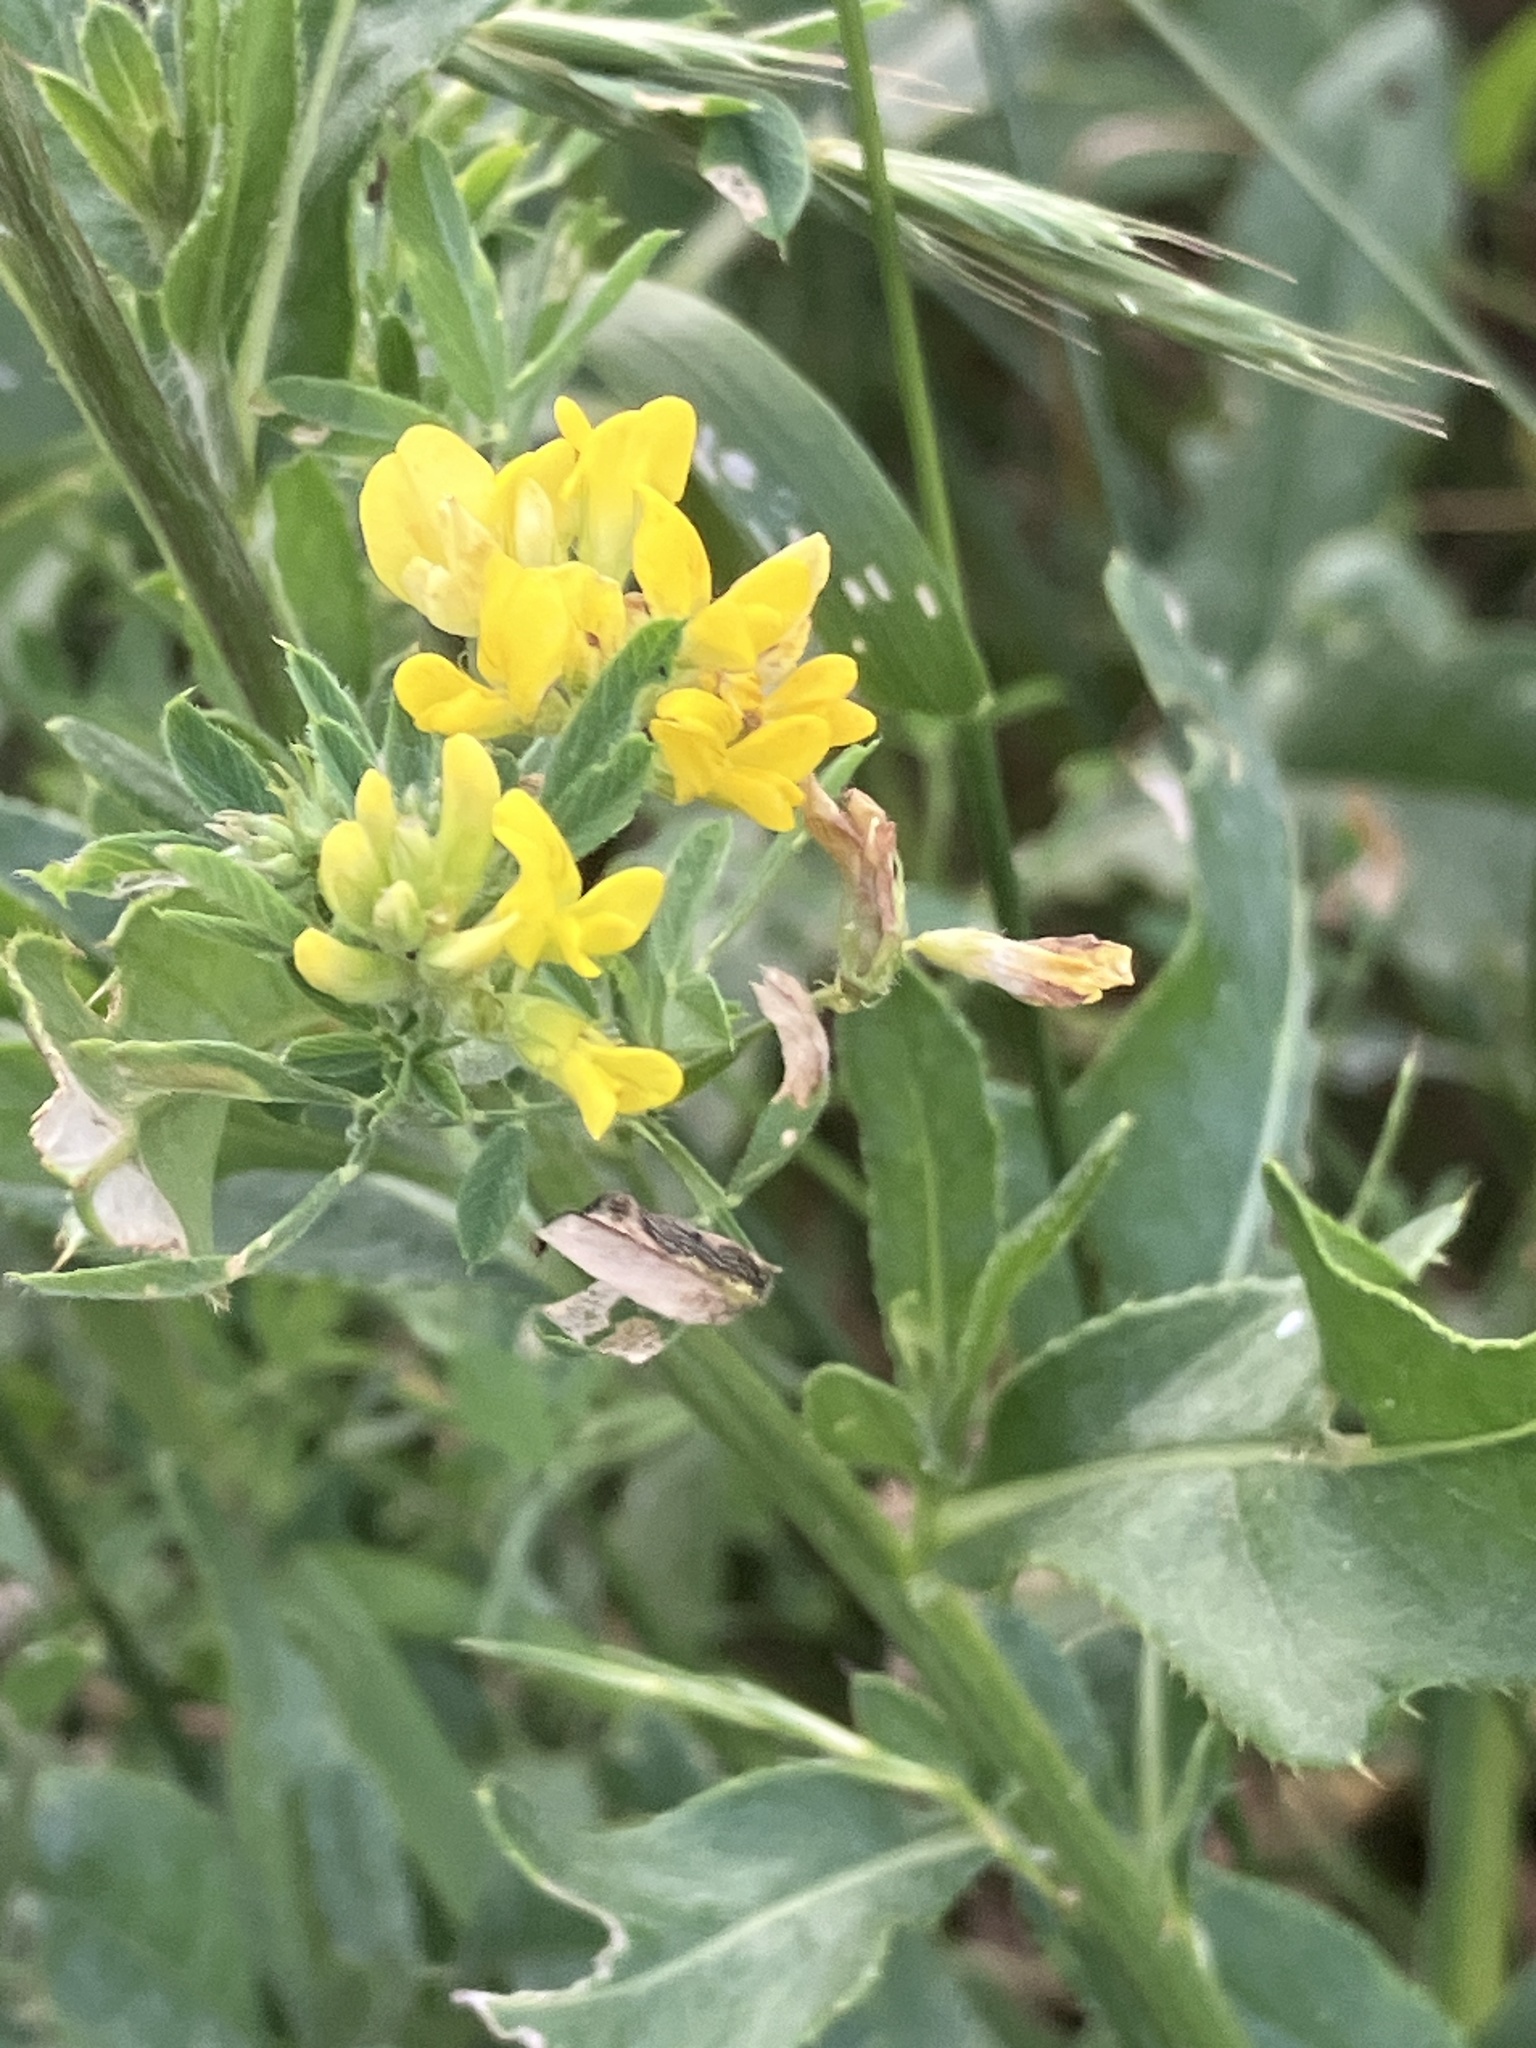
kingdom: Plantae
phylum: Tracheophyta
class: Magnoliopsida
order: Fabales
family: Fabaceae
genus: Medicago
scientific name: Medicago falcata
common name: Sickle medick
